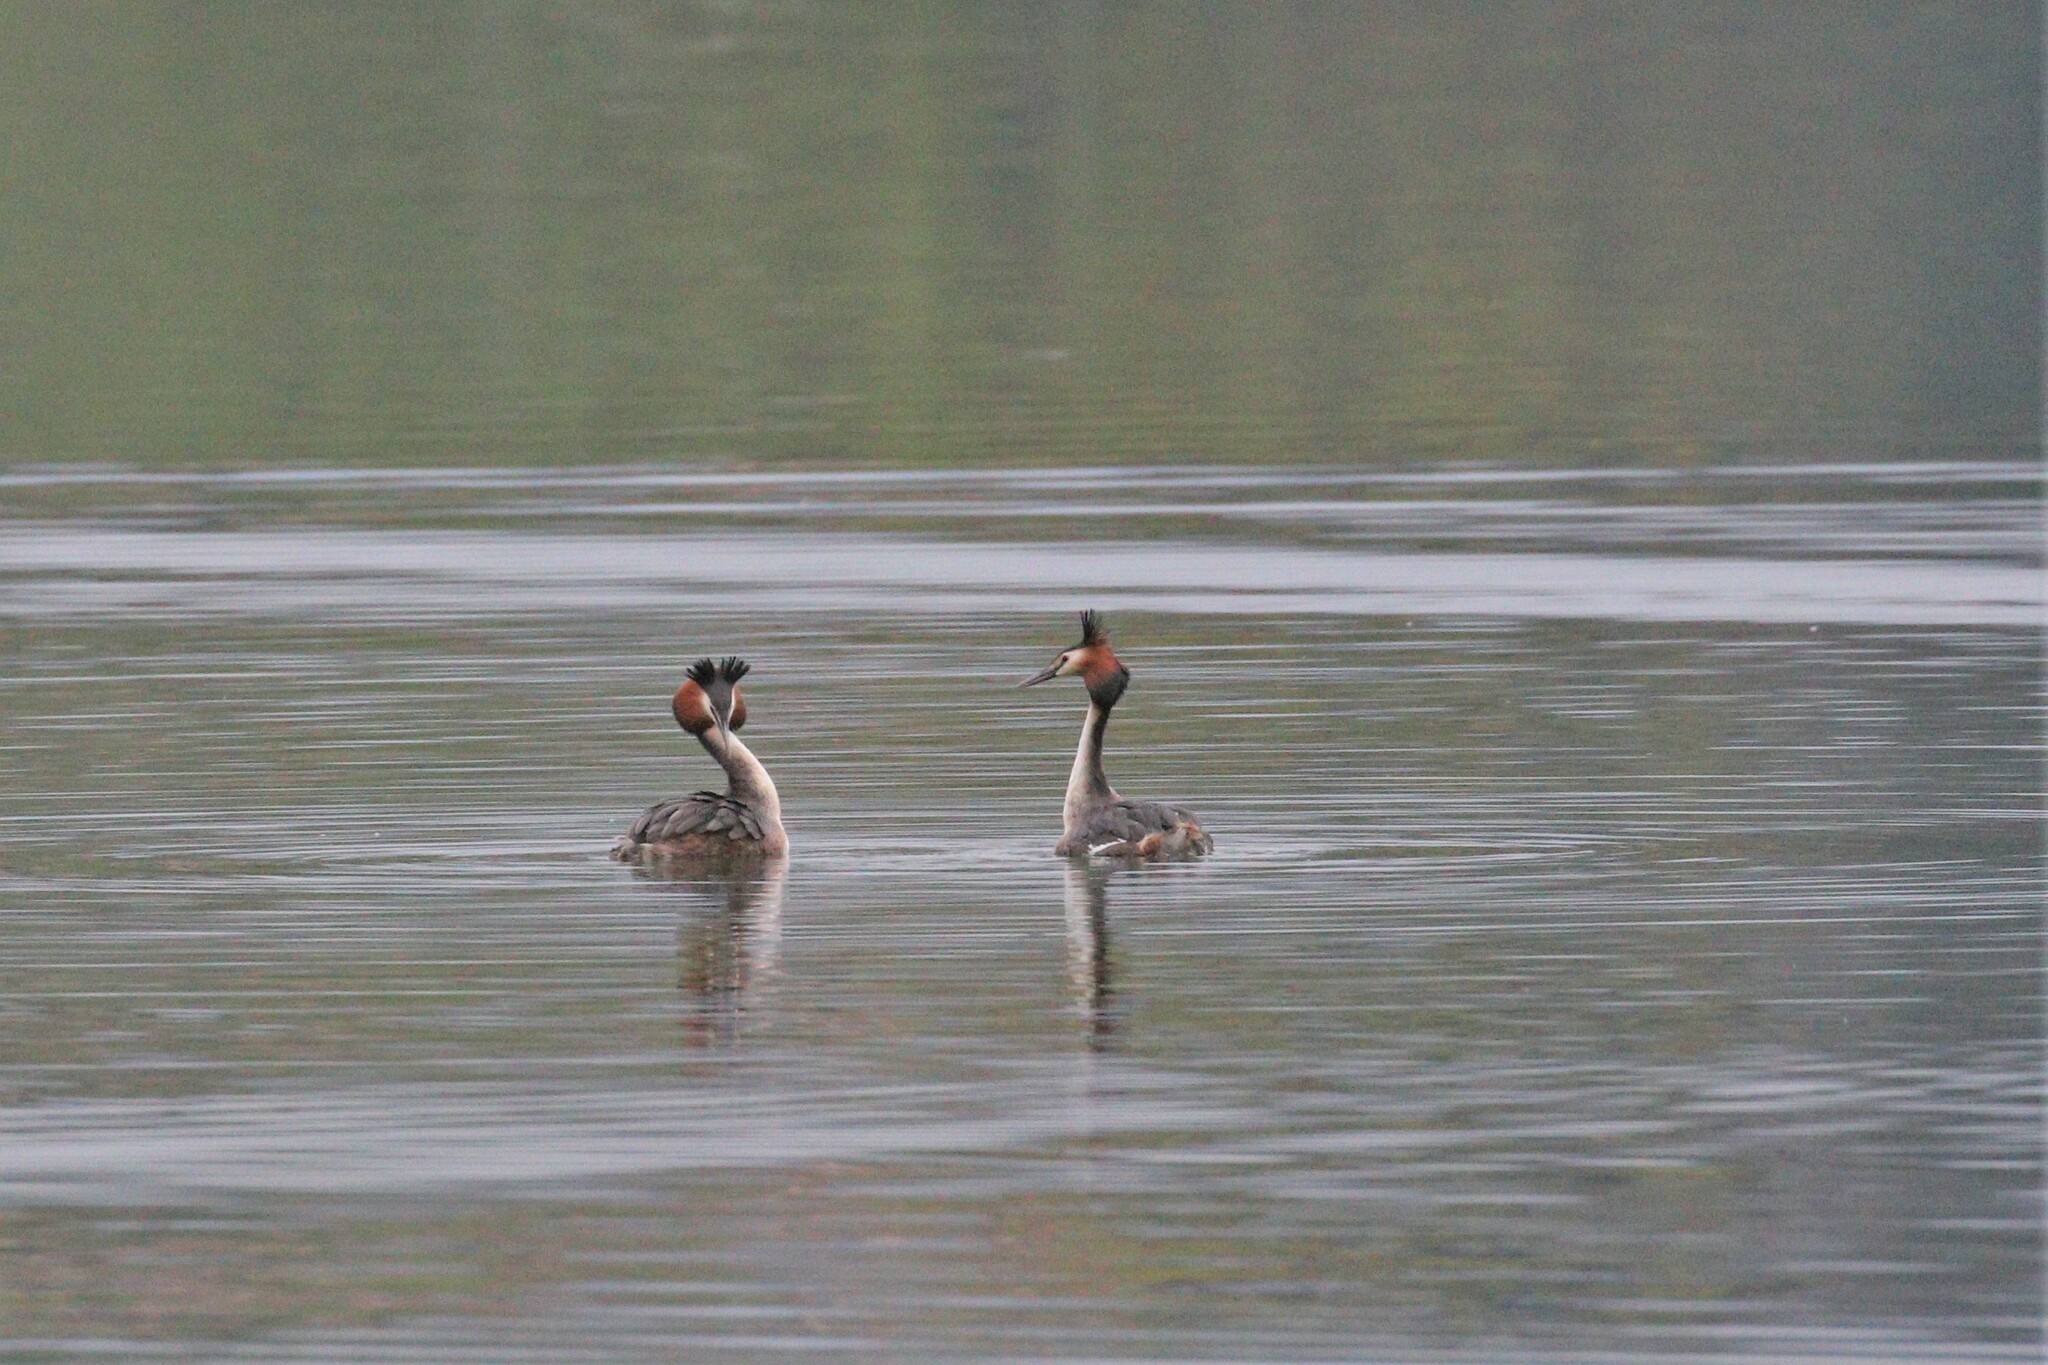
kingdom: Animalia
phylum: Chordata
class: Aves
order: Podicipediformes
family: Podicipedidae
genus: Podiceps
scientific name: Podiceps cristatus
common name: Great crested grebe
